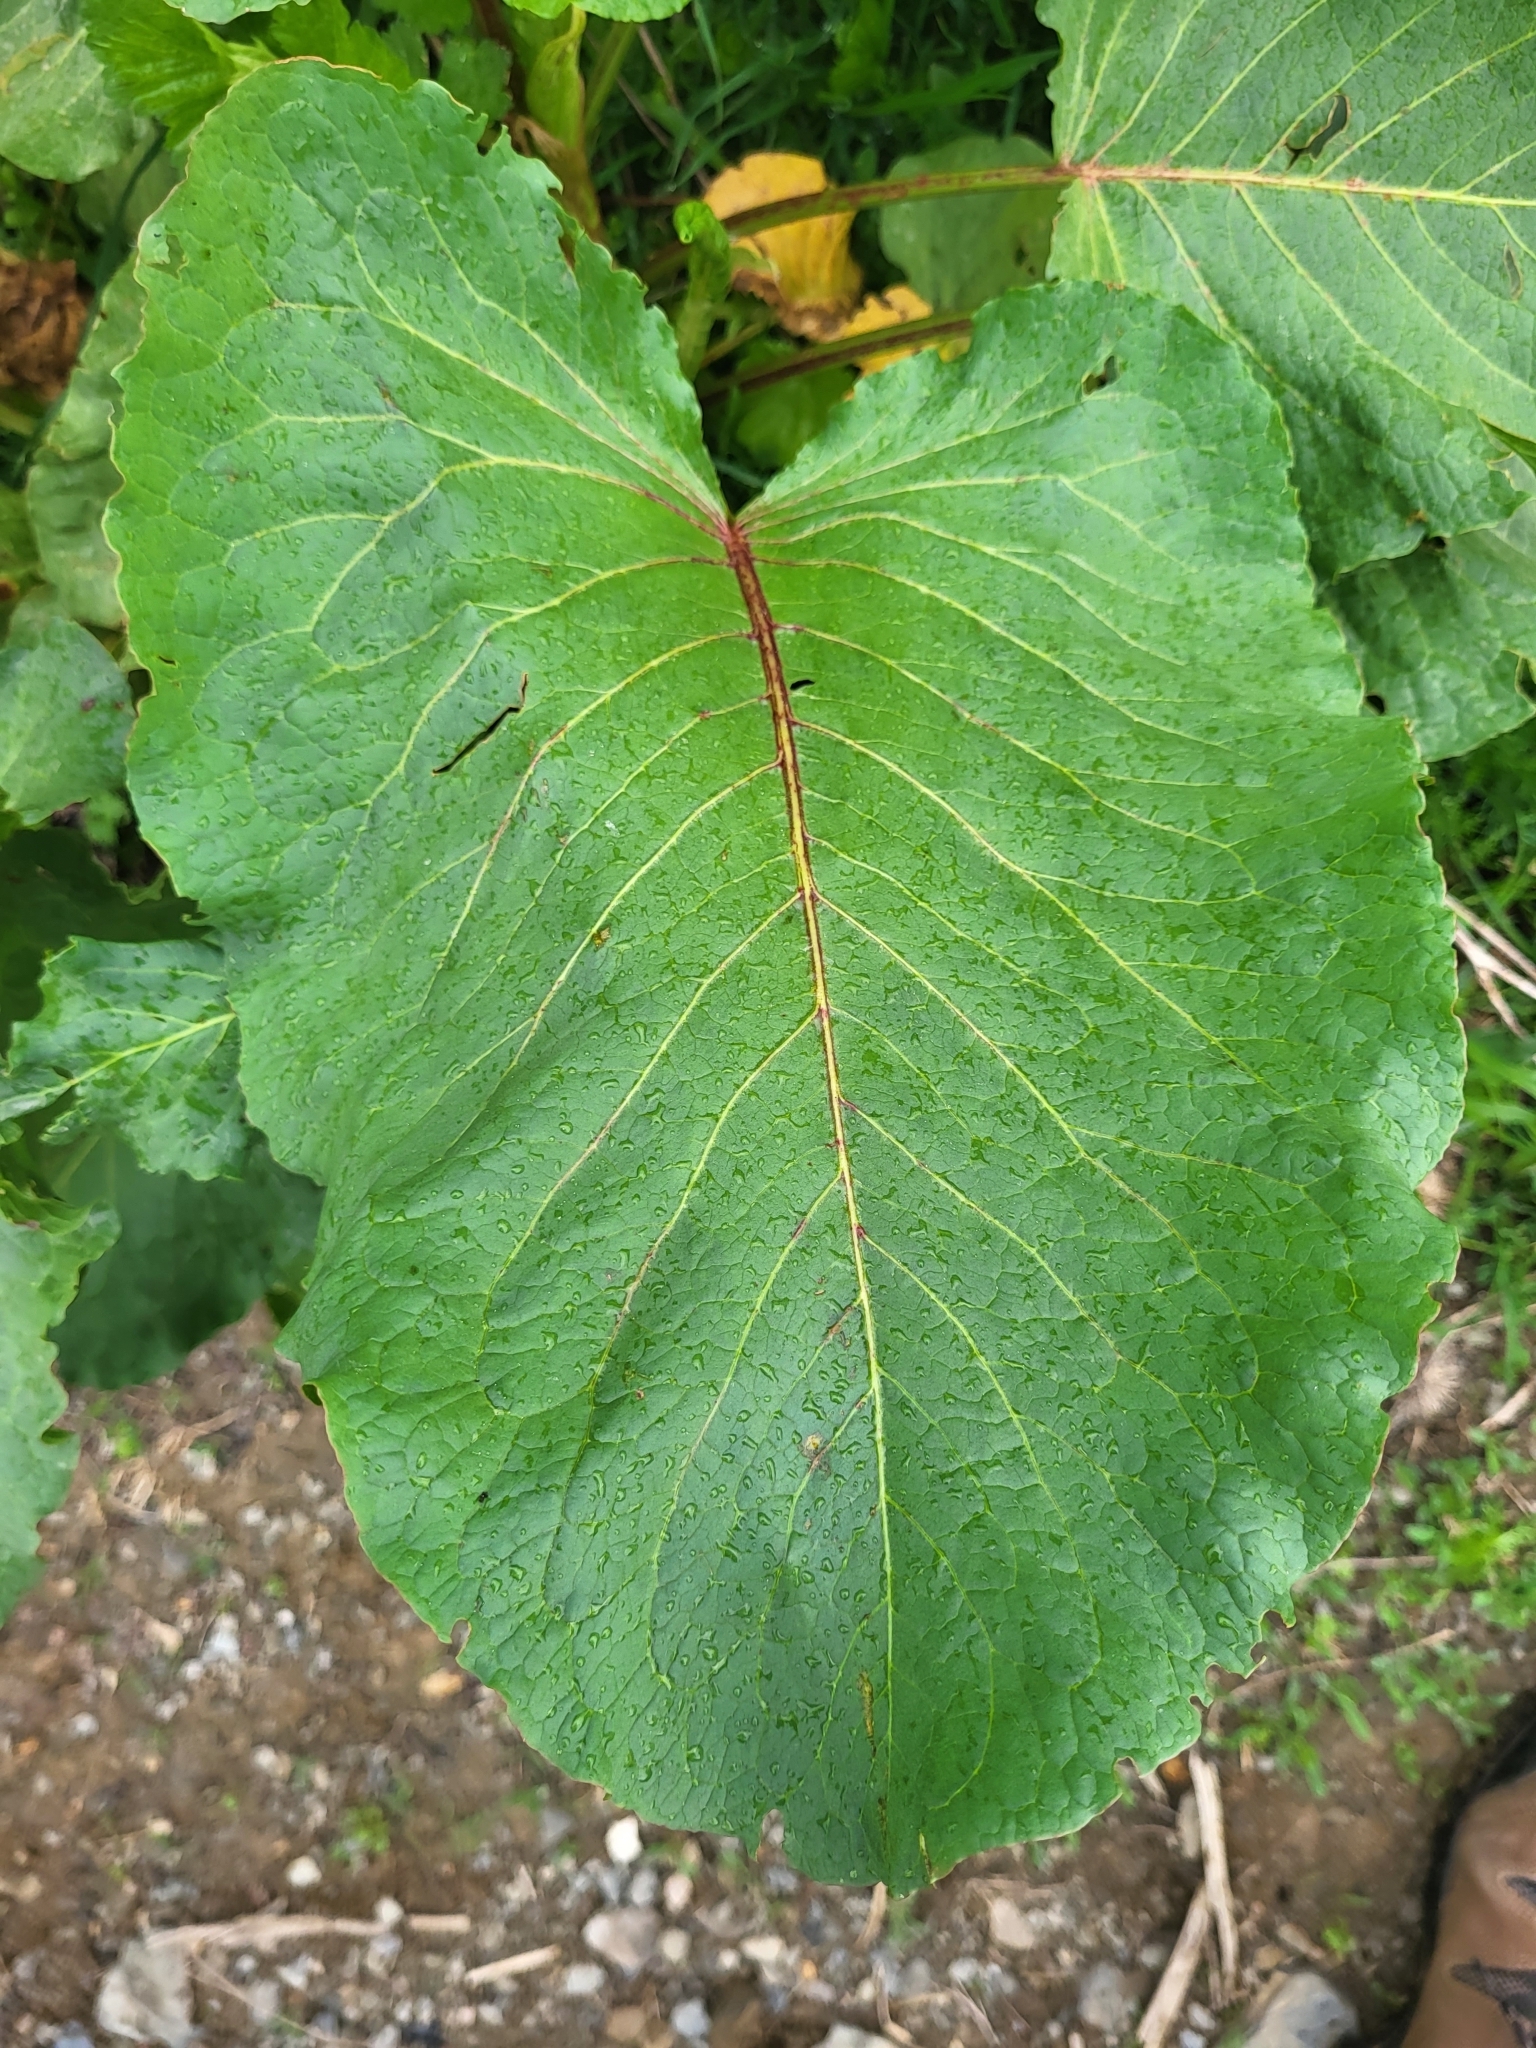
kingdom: Plantae
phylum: Tracheophyta
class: Magnoliopsida
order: Caryophyllales
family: Polygonaceae
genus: Rumex
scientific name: Rumex alpinus
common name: Alpine dock
